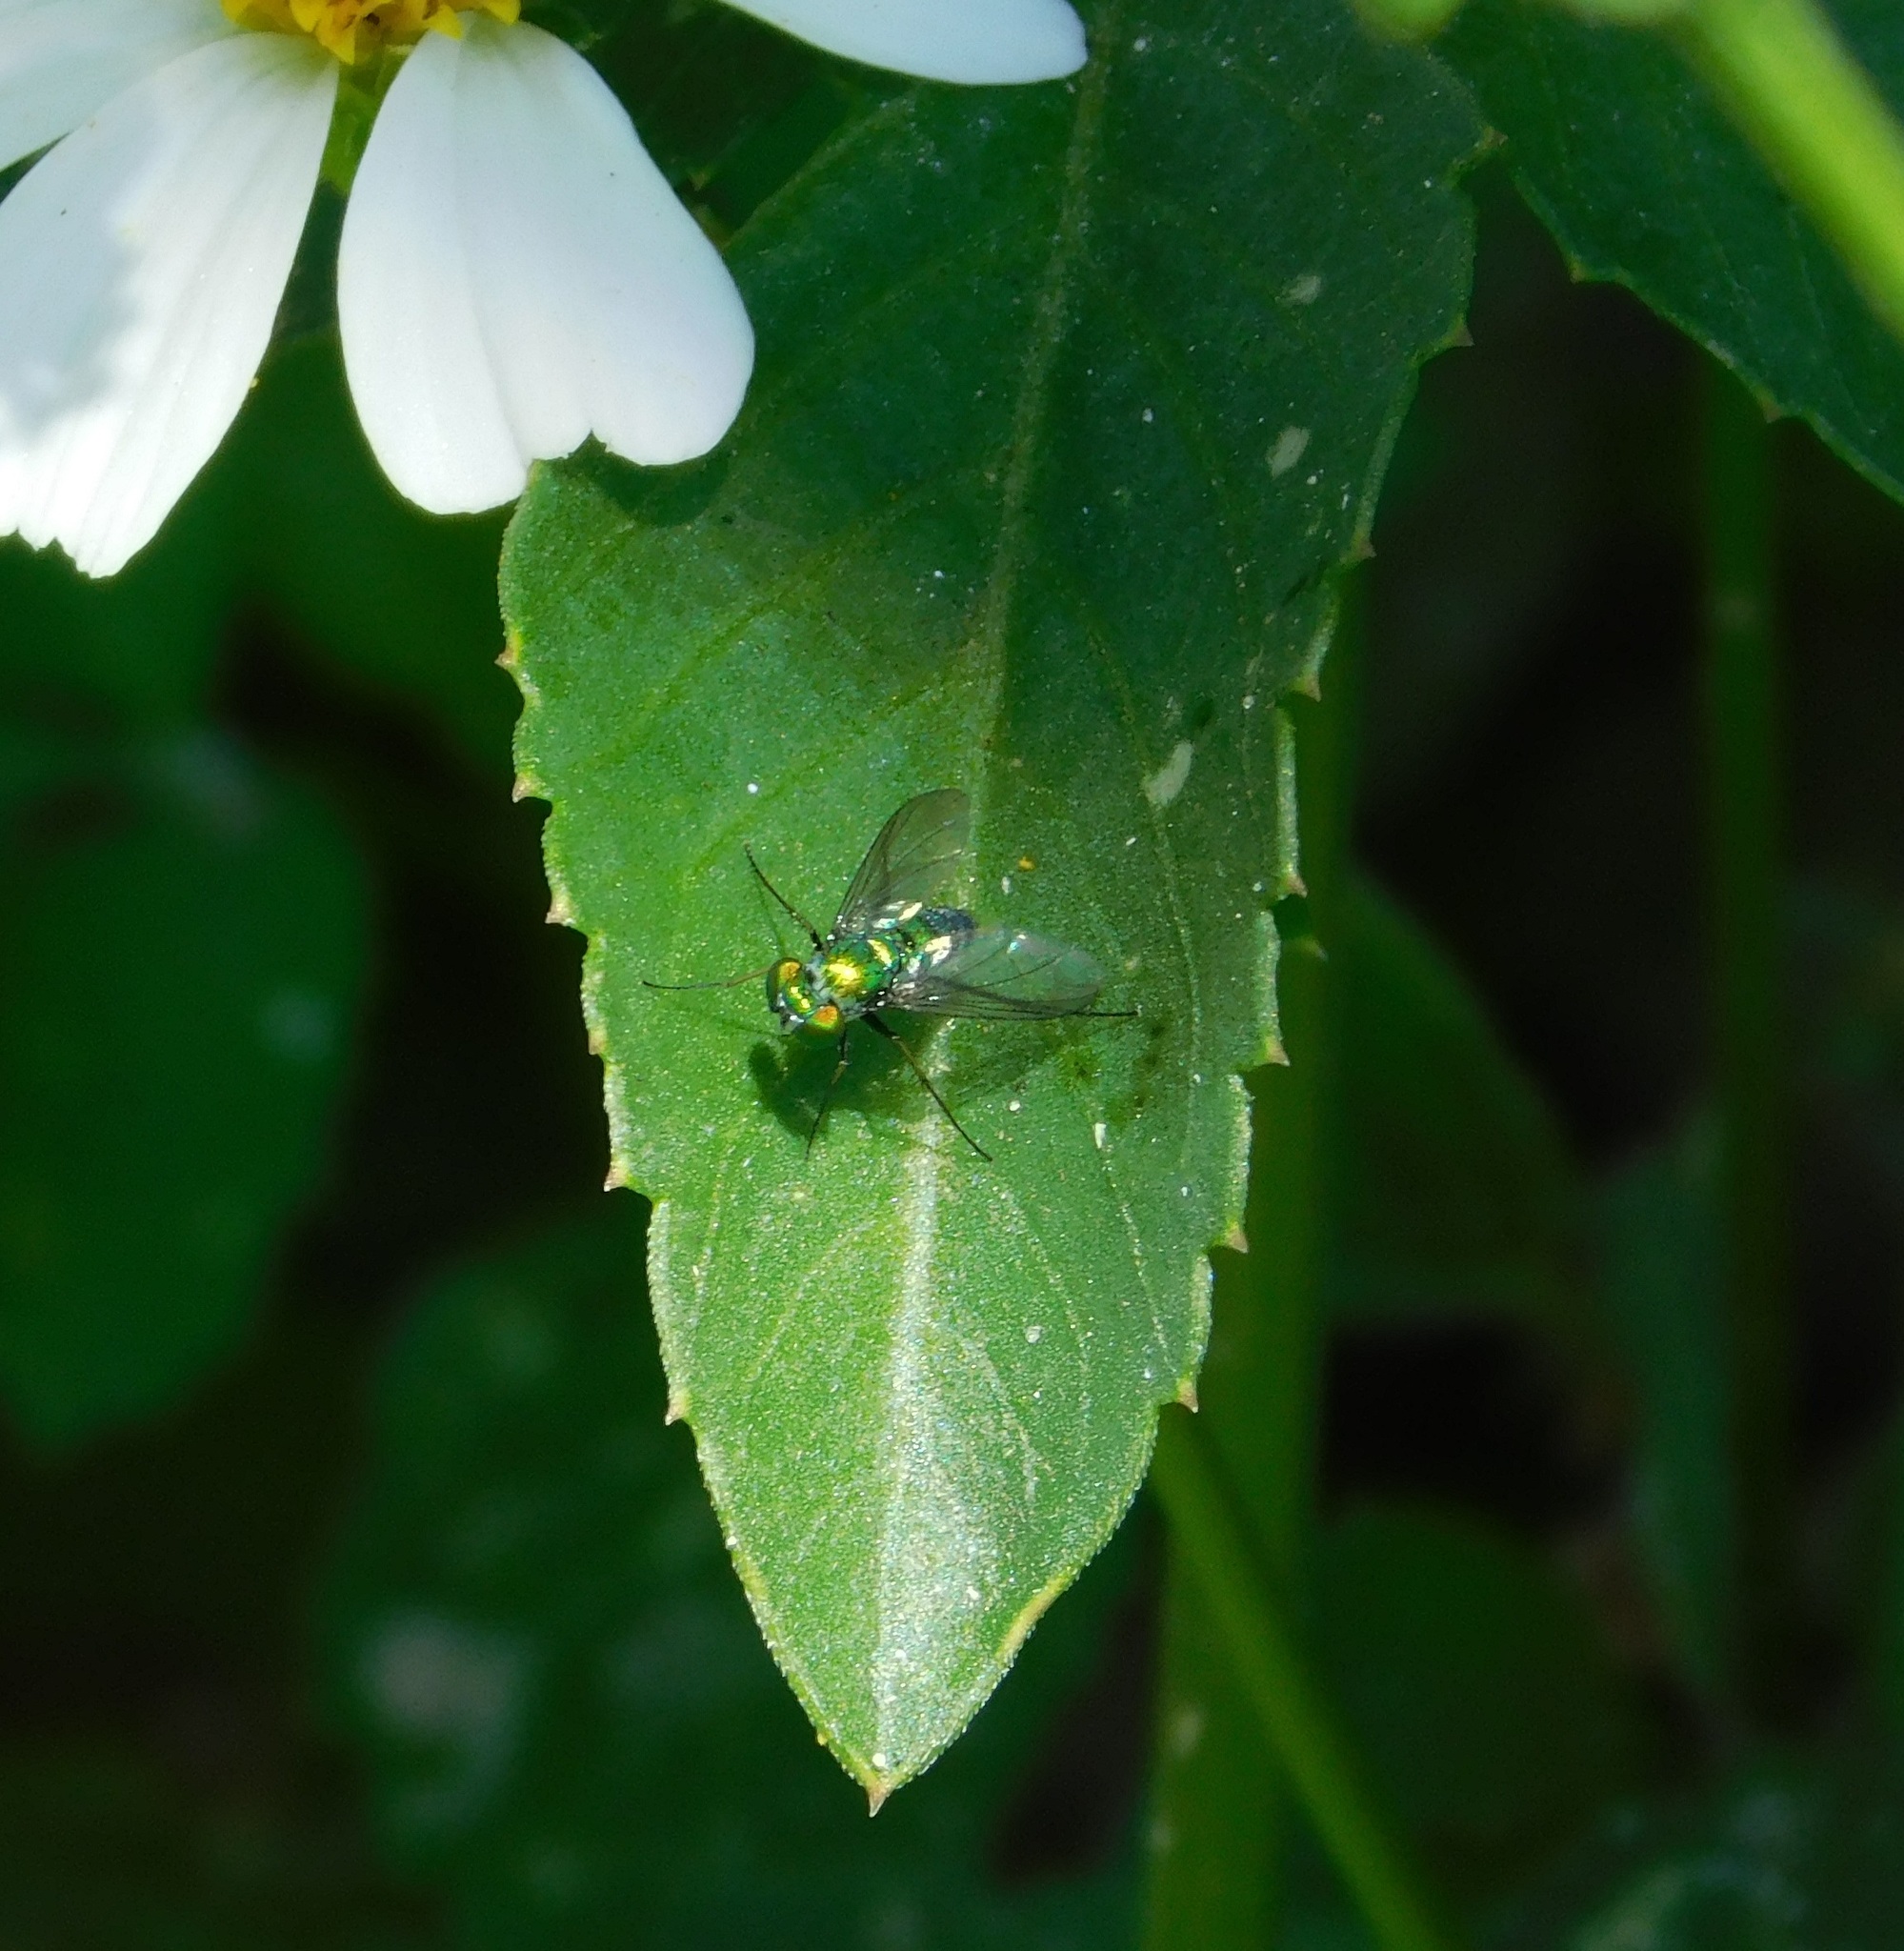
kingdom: Animalia
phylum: Arthropoda
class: Insecta
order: Diptera
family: Dolichopodidae
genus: Condylostylus
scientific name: Condylostylus longicornis
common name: Long-legged fly
